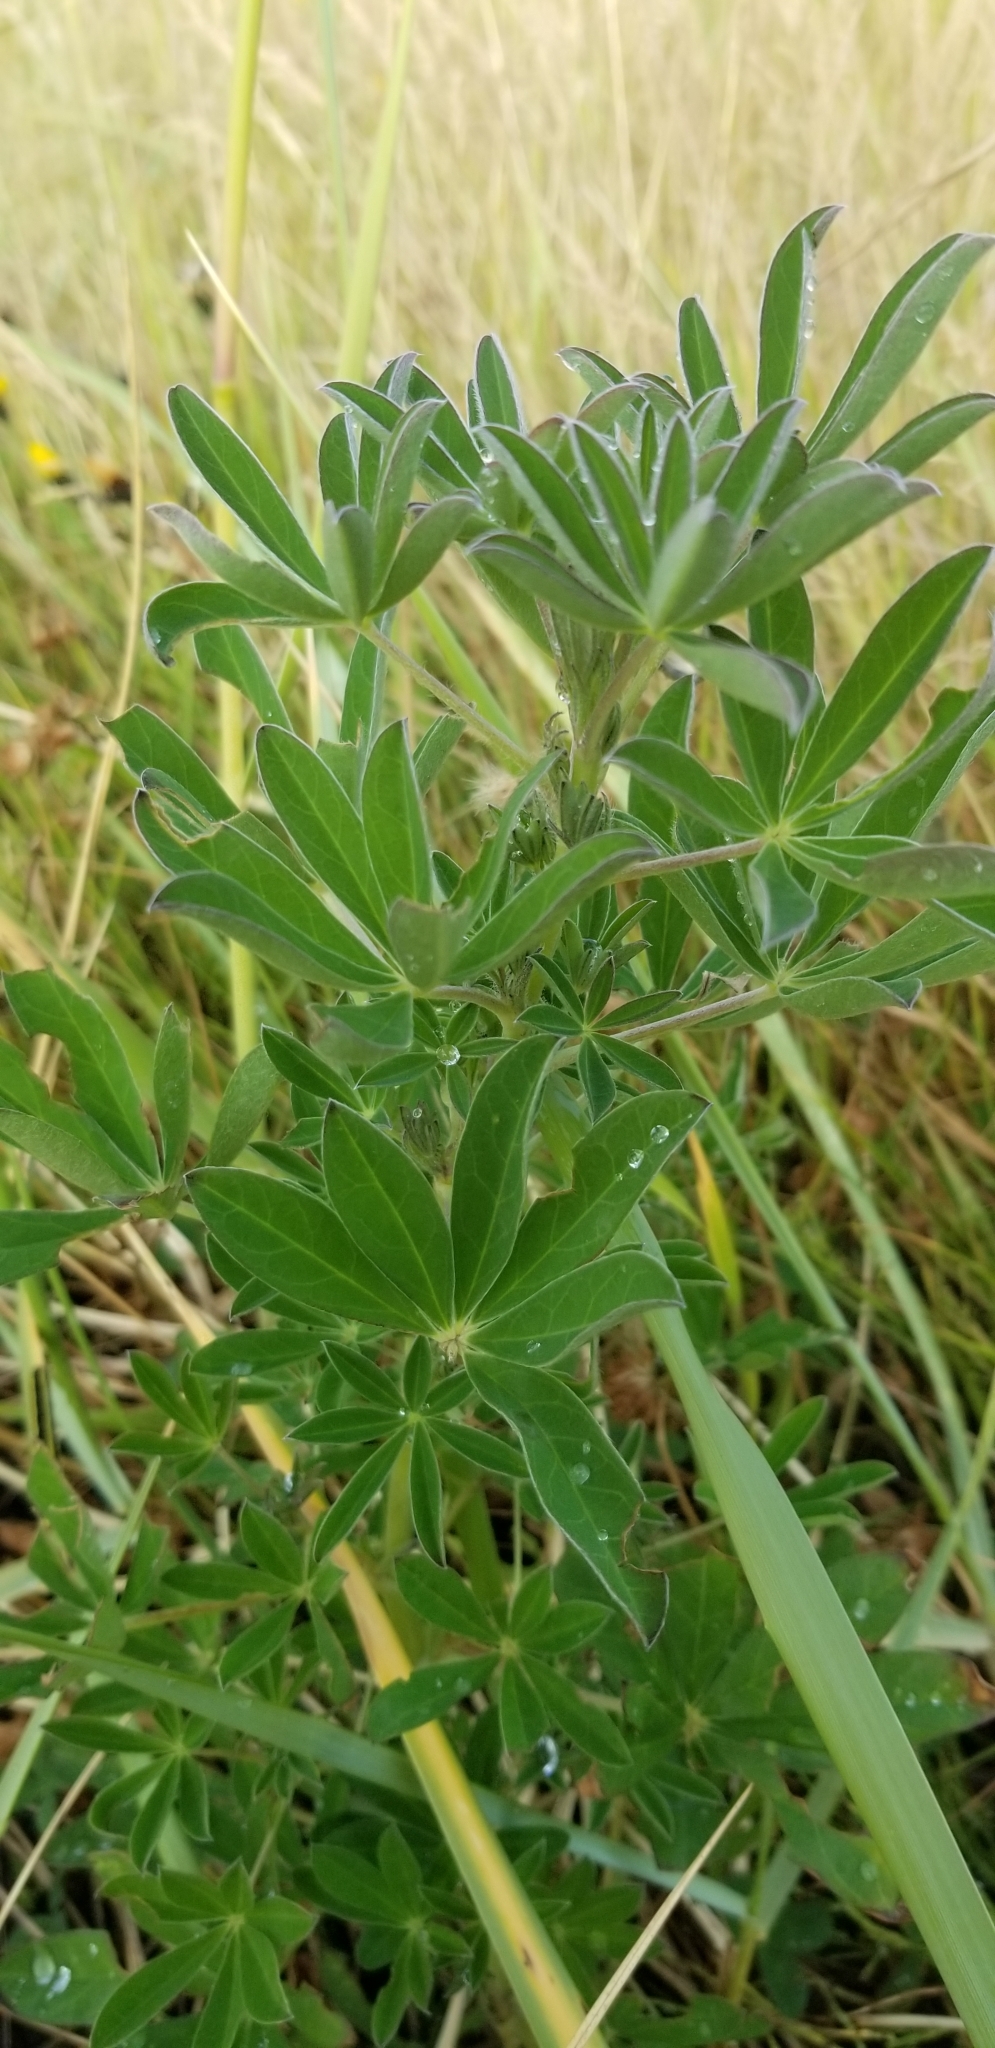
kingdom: Plantae
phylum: Tracheophyta
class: Magnoliopsida
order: Fabales
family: Fabaceae
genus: Lupinus
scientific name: Lupinus nootkatensis
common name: Nootka lupine
